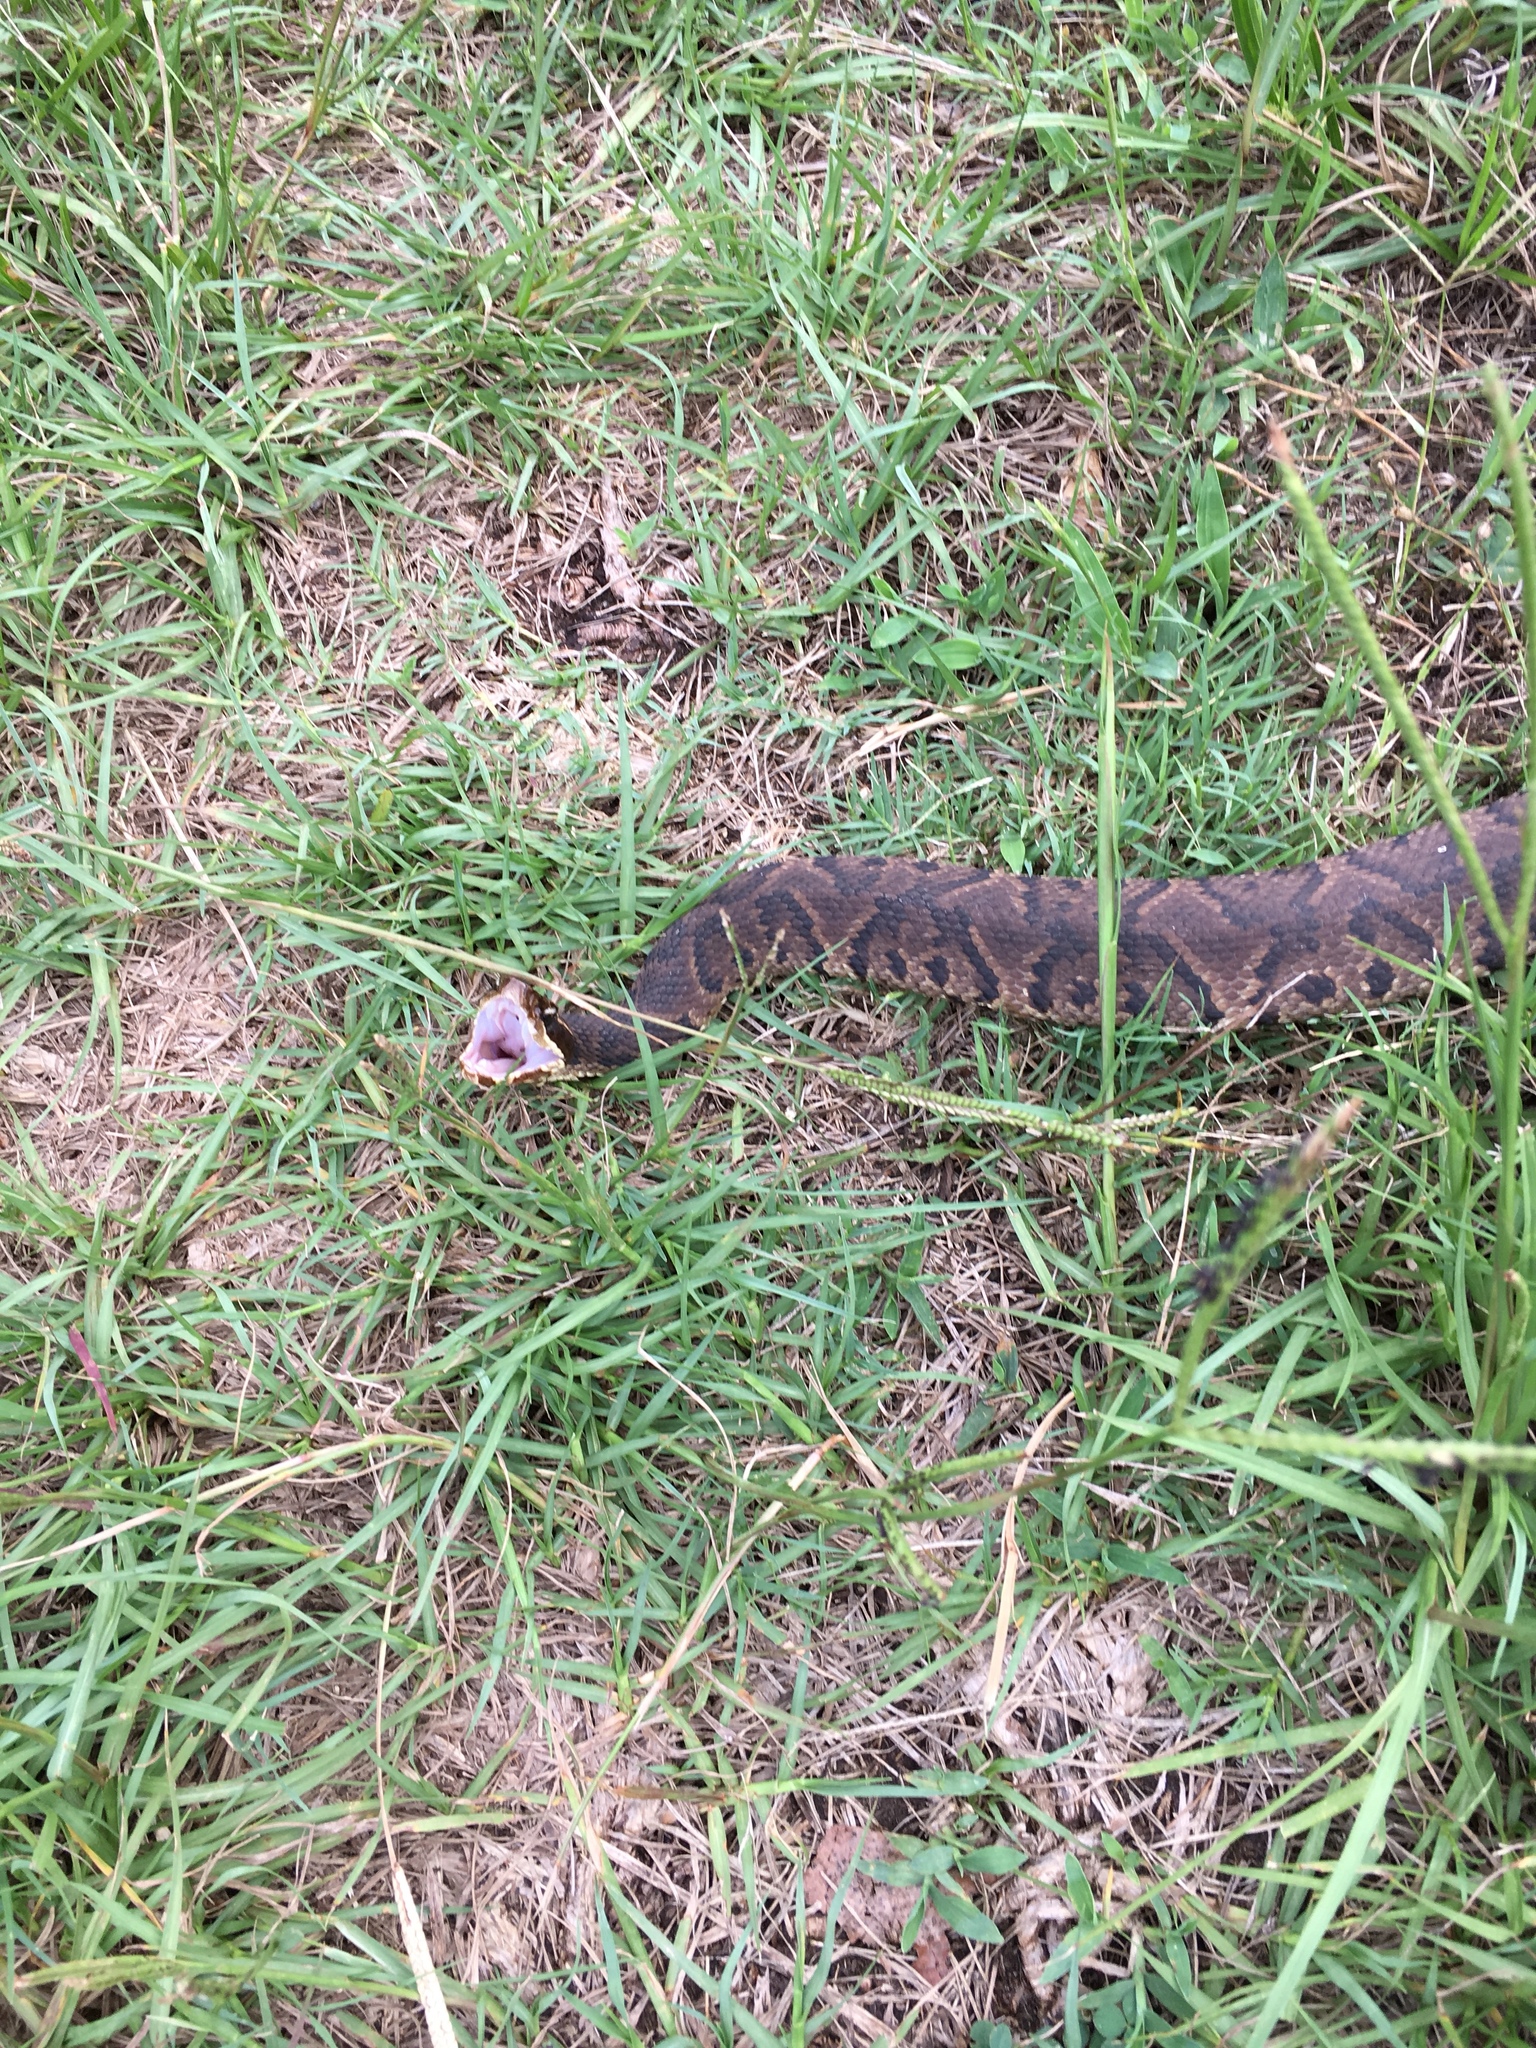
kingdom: Animalia
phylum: Chordata
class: Squamata
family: Viperidae
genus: Agkistrodon
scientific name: Agkistrodon piscivorus
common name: Cottonmouth
